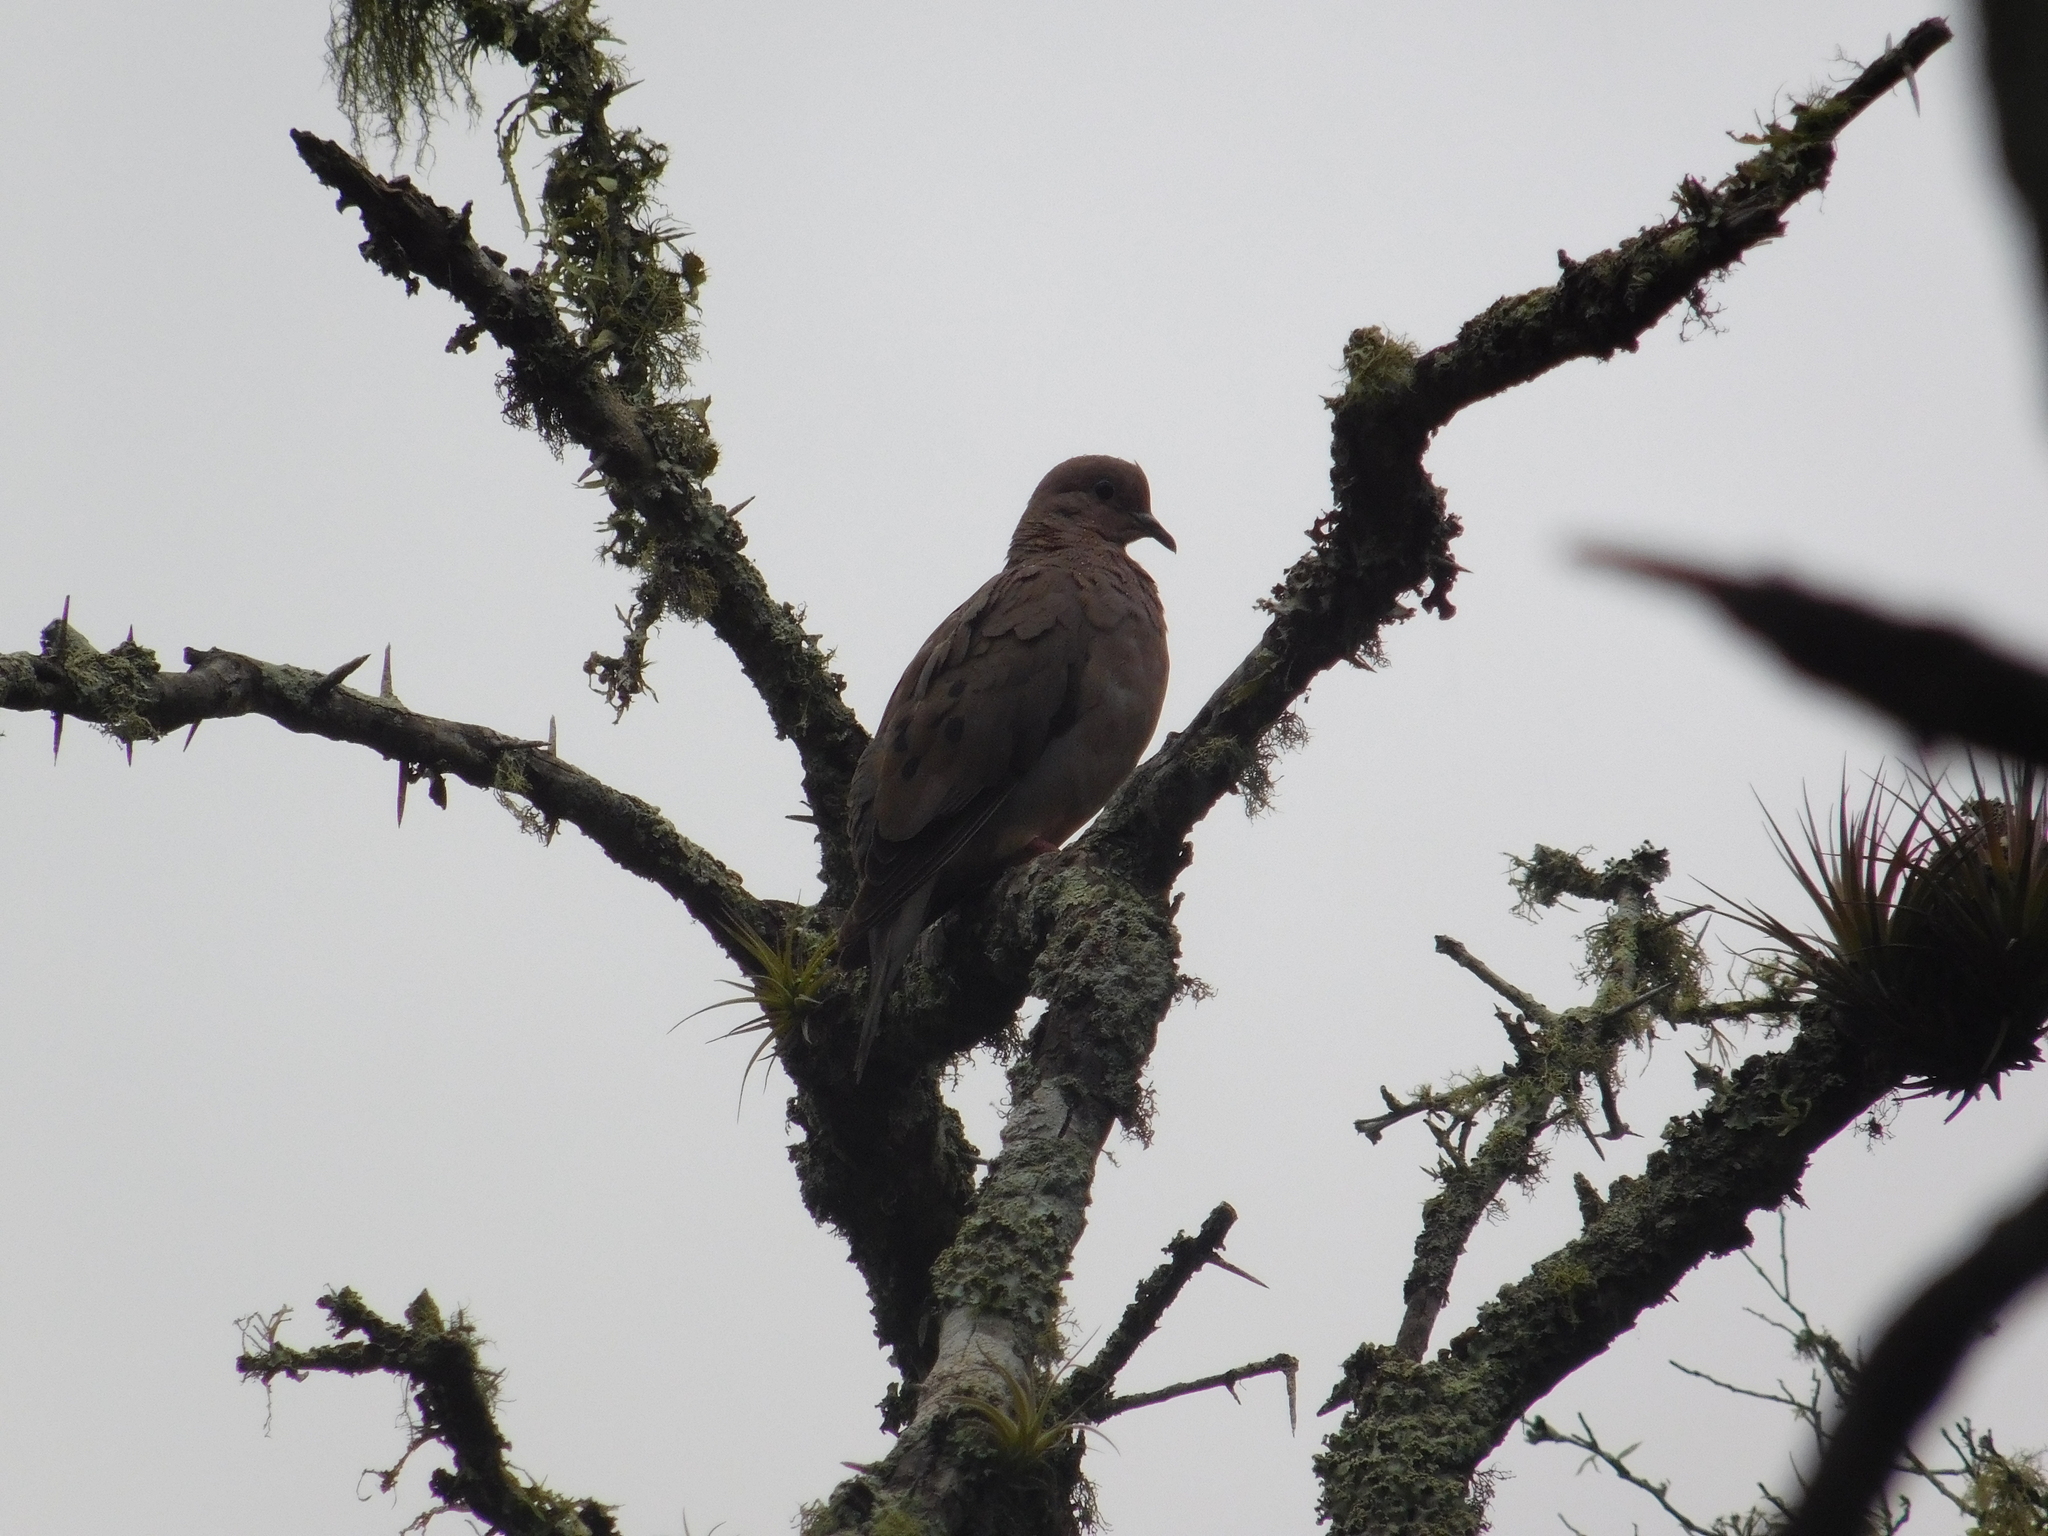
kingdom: Animalia
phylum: Chordata
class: Aves
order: Columbiformes
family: Columbidae
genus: Zenaida
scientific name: Zenaida auriculata
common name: Eared dove
